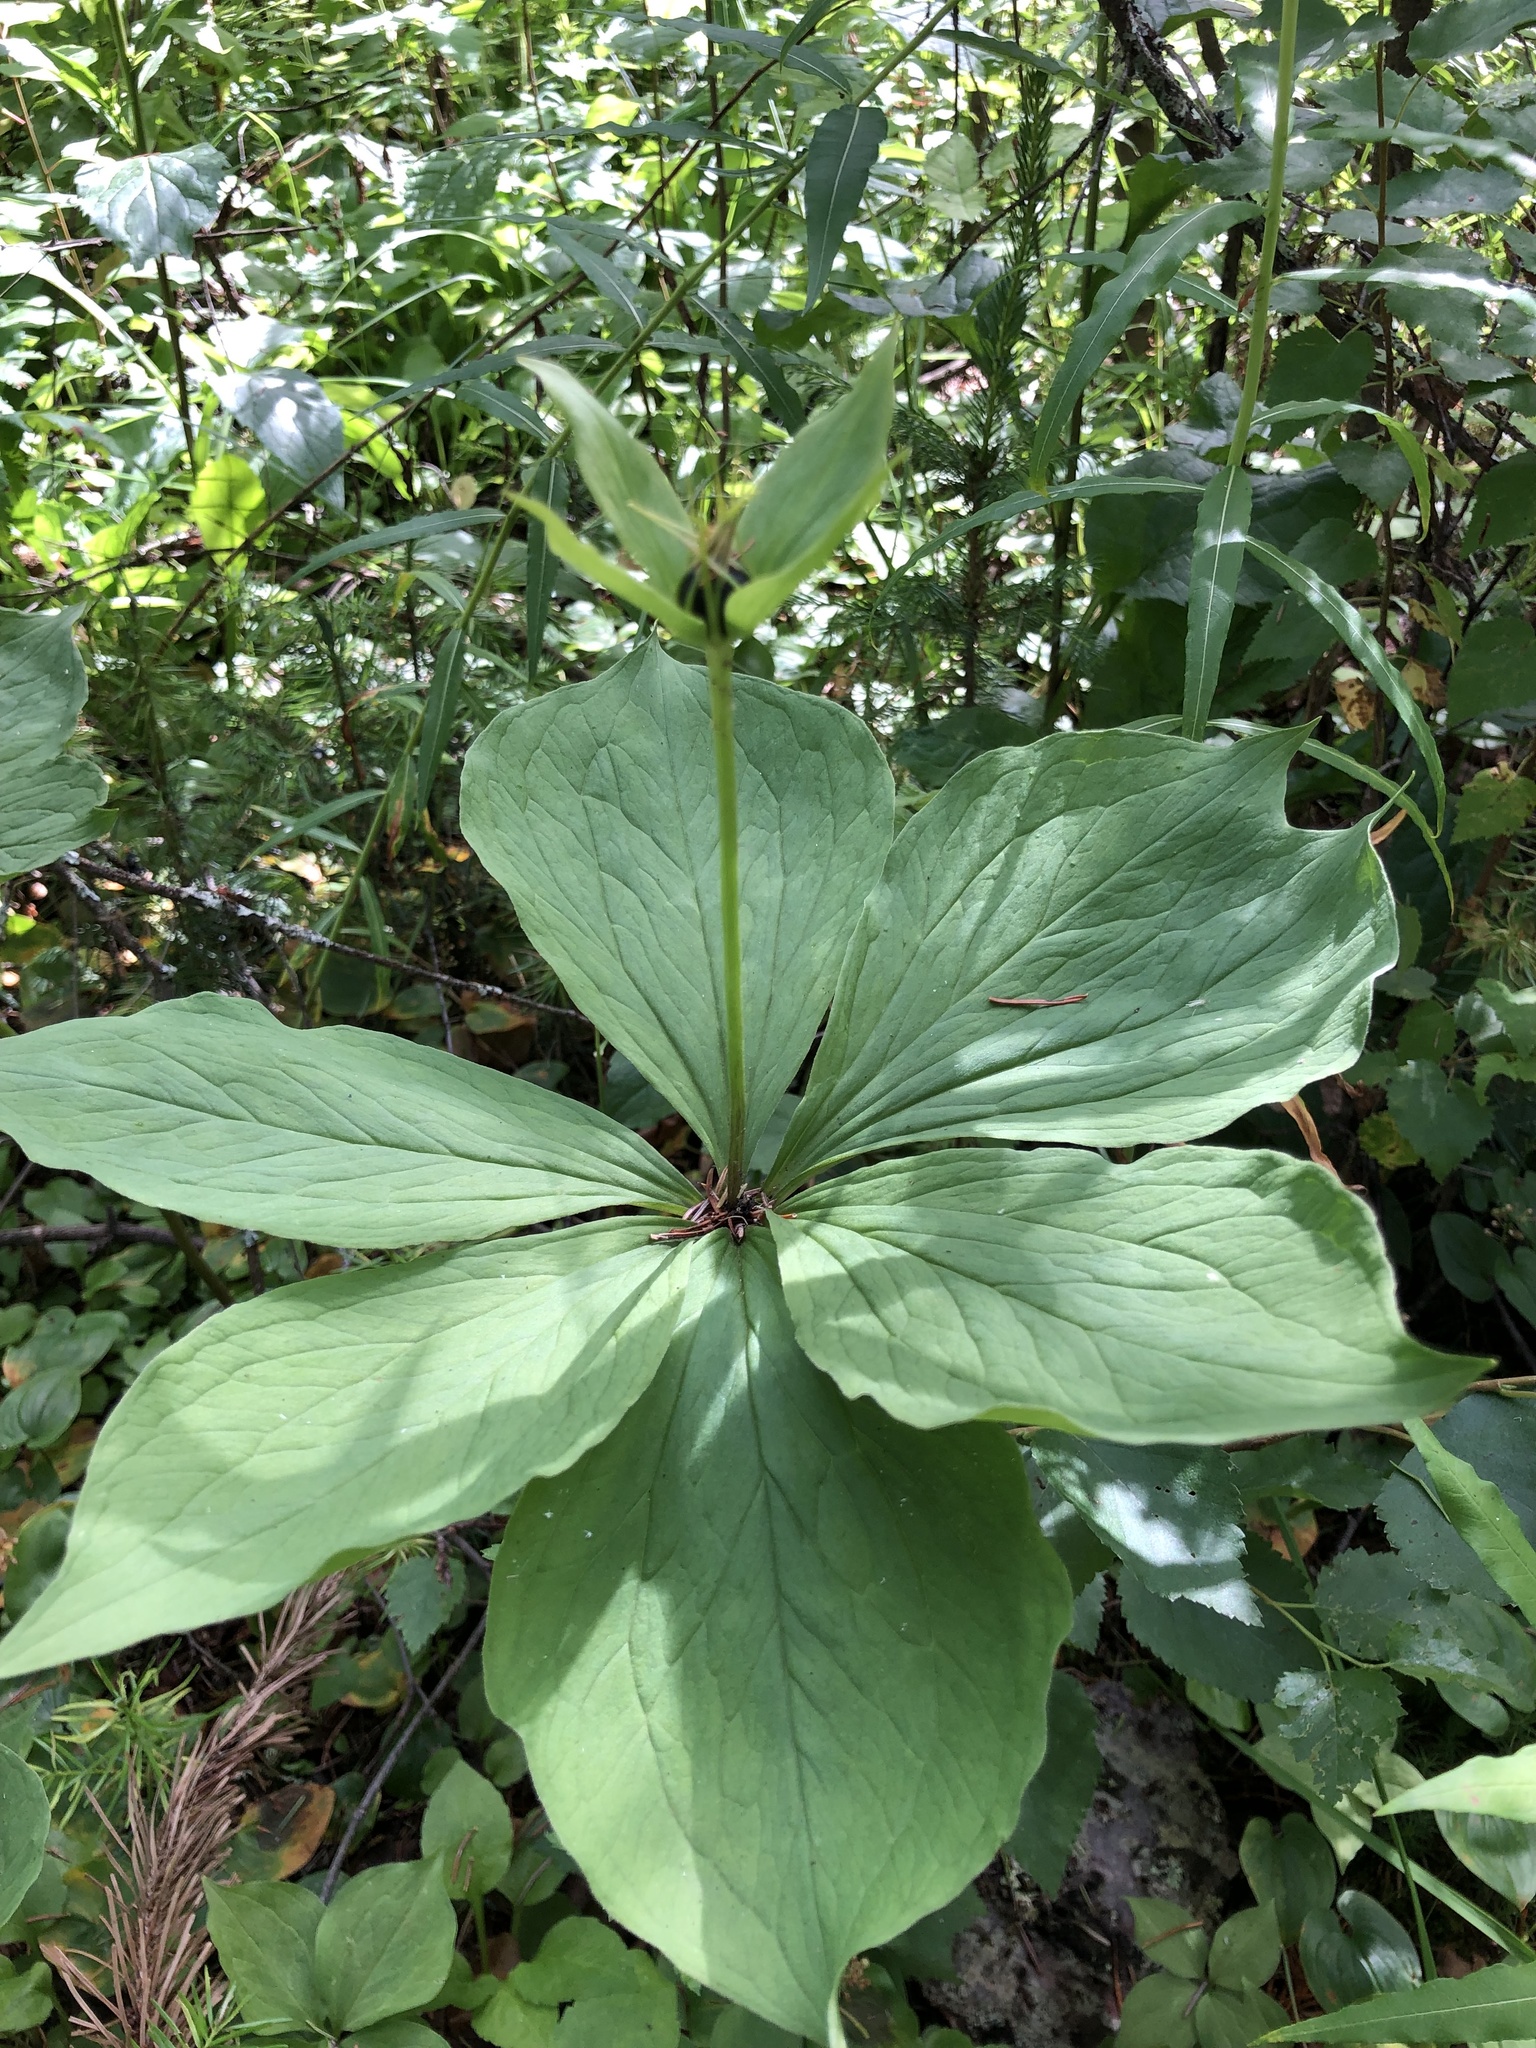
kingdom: Plantae
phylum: Tracheophyta
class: Liliopsida
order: Liliales
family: Melanthiaceae
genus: Paris
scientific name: Paris quadrifolia
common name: Herb-paris
